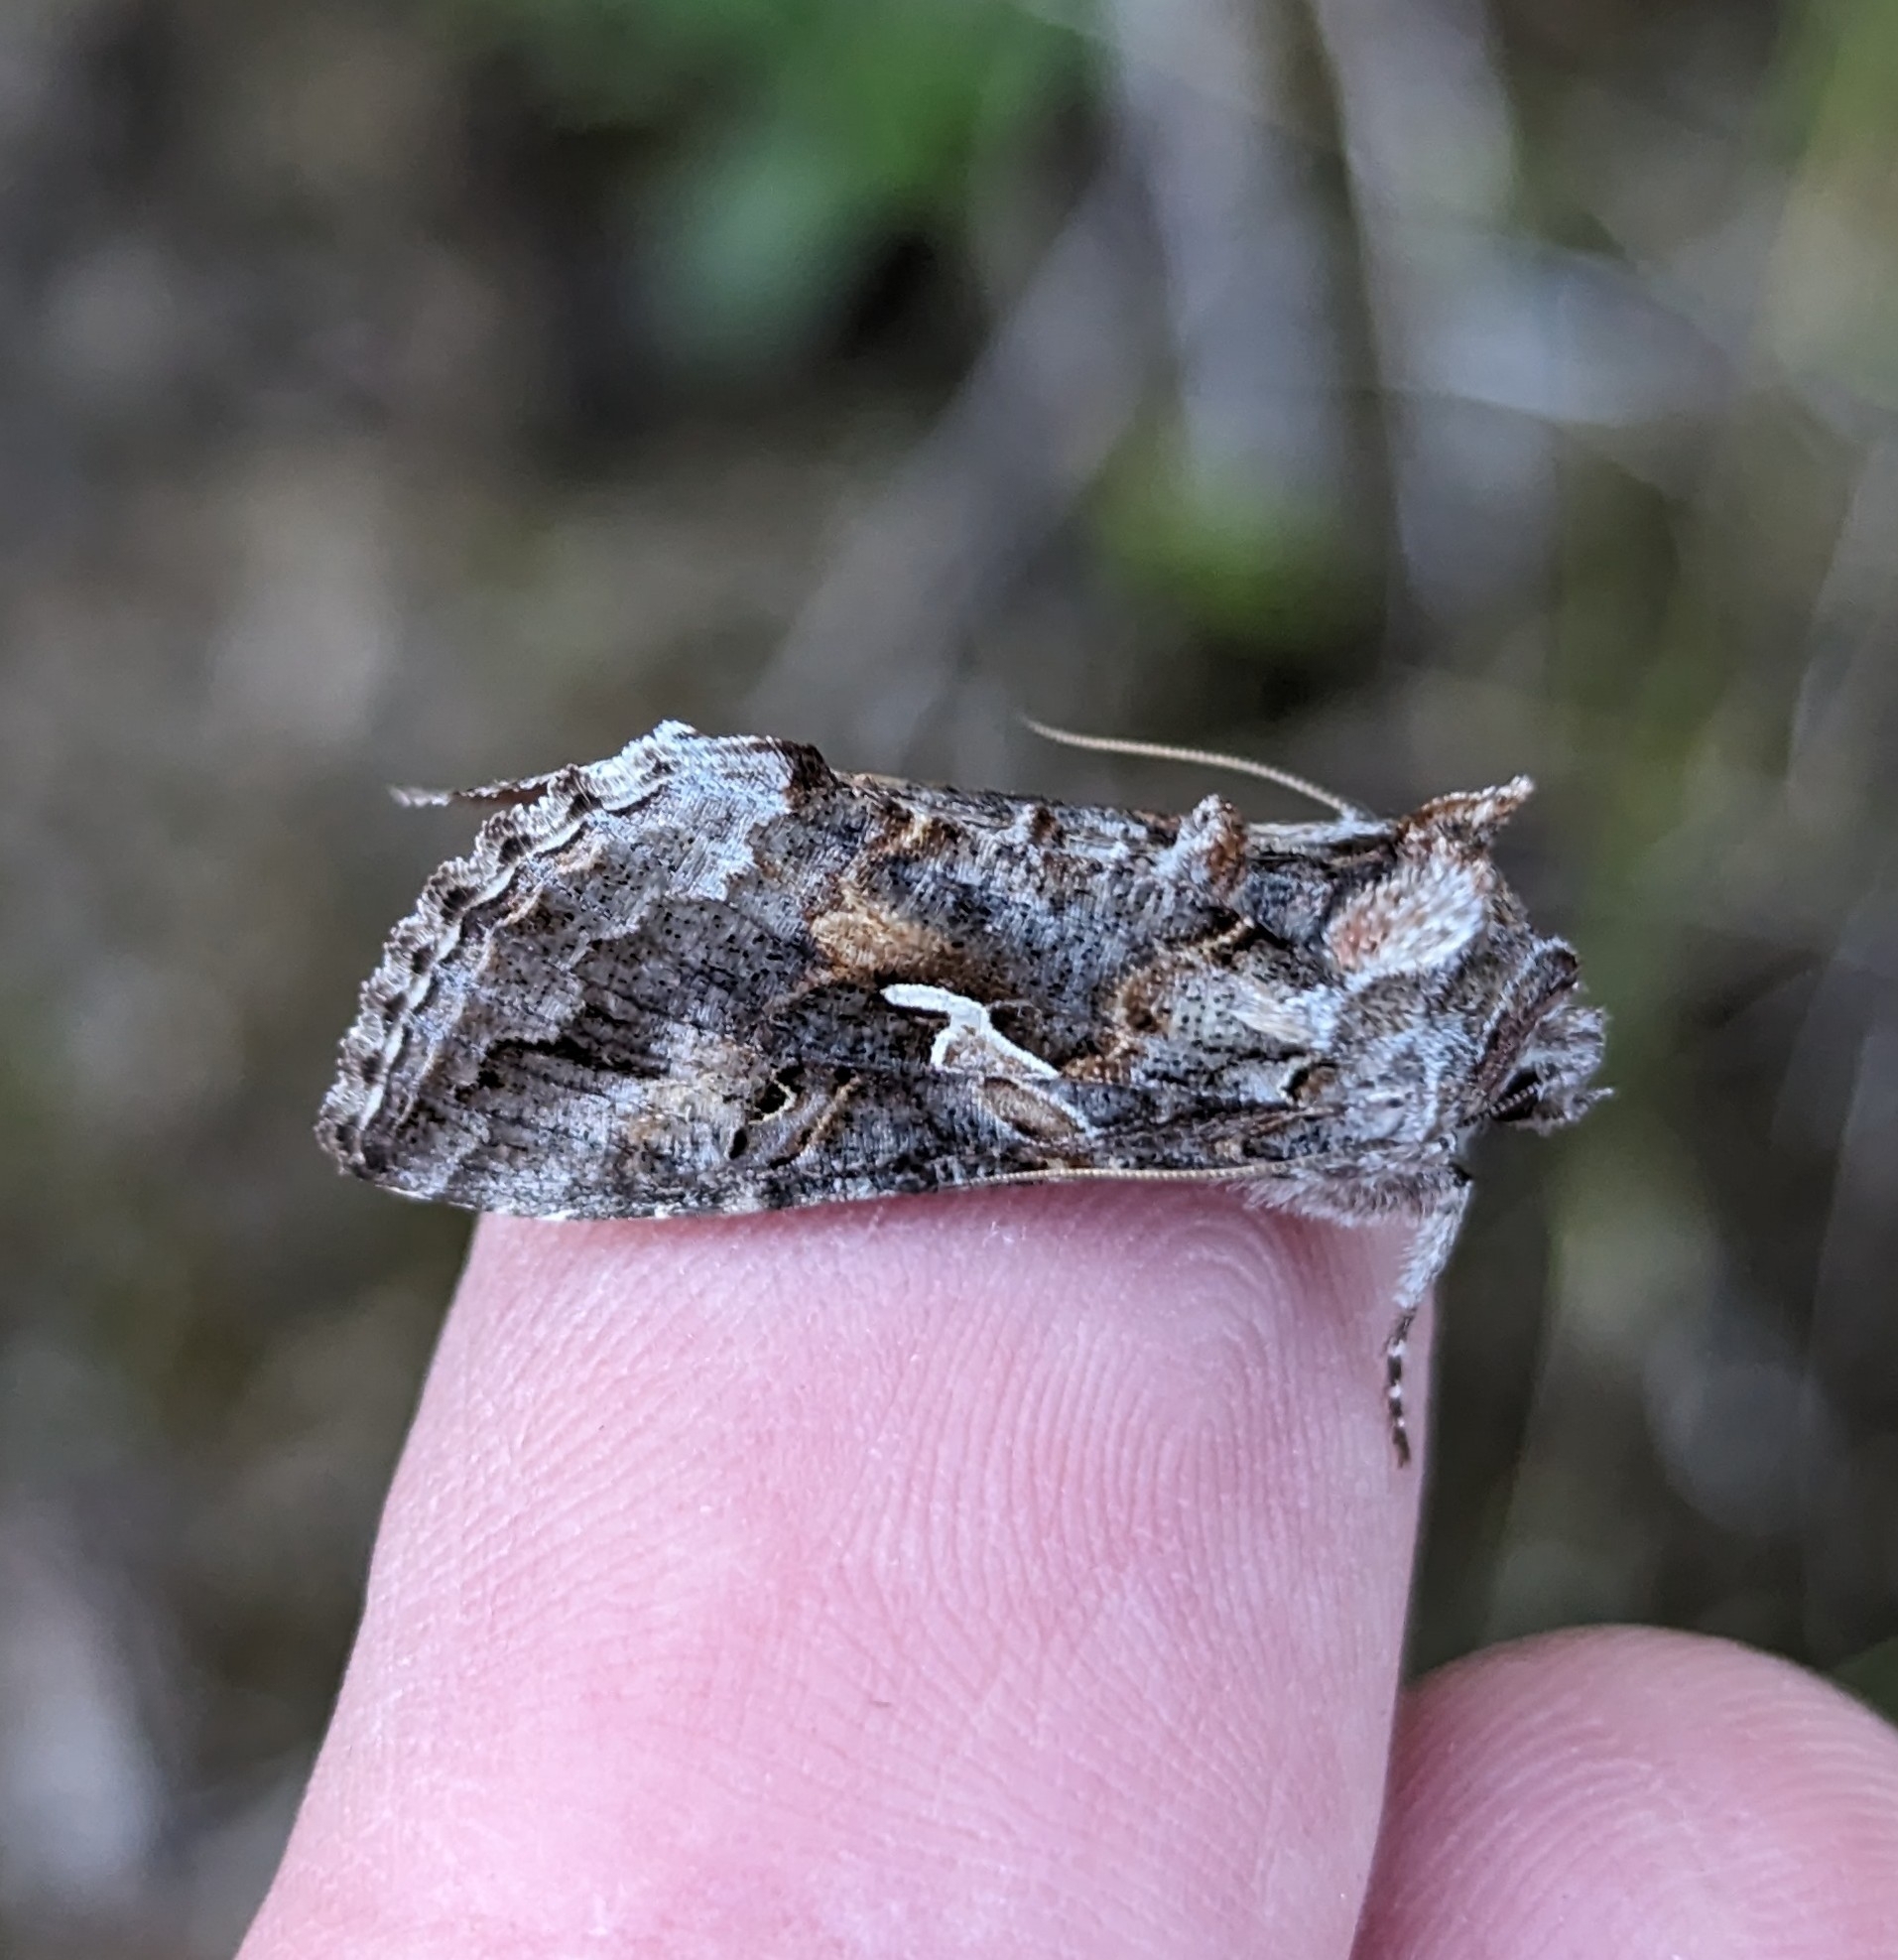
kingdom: Animalia
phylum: Arthropoda
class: Insecta
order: Lepidoptera
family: Noctuidae
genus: Autographa
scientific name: Autographa californica
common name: Alfalfa looper
